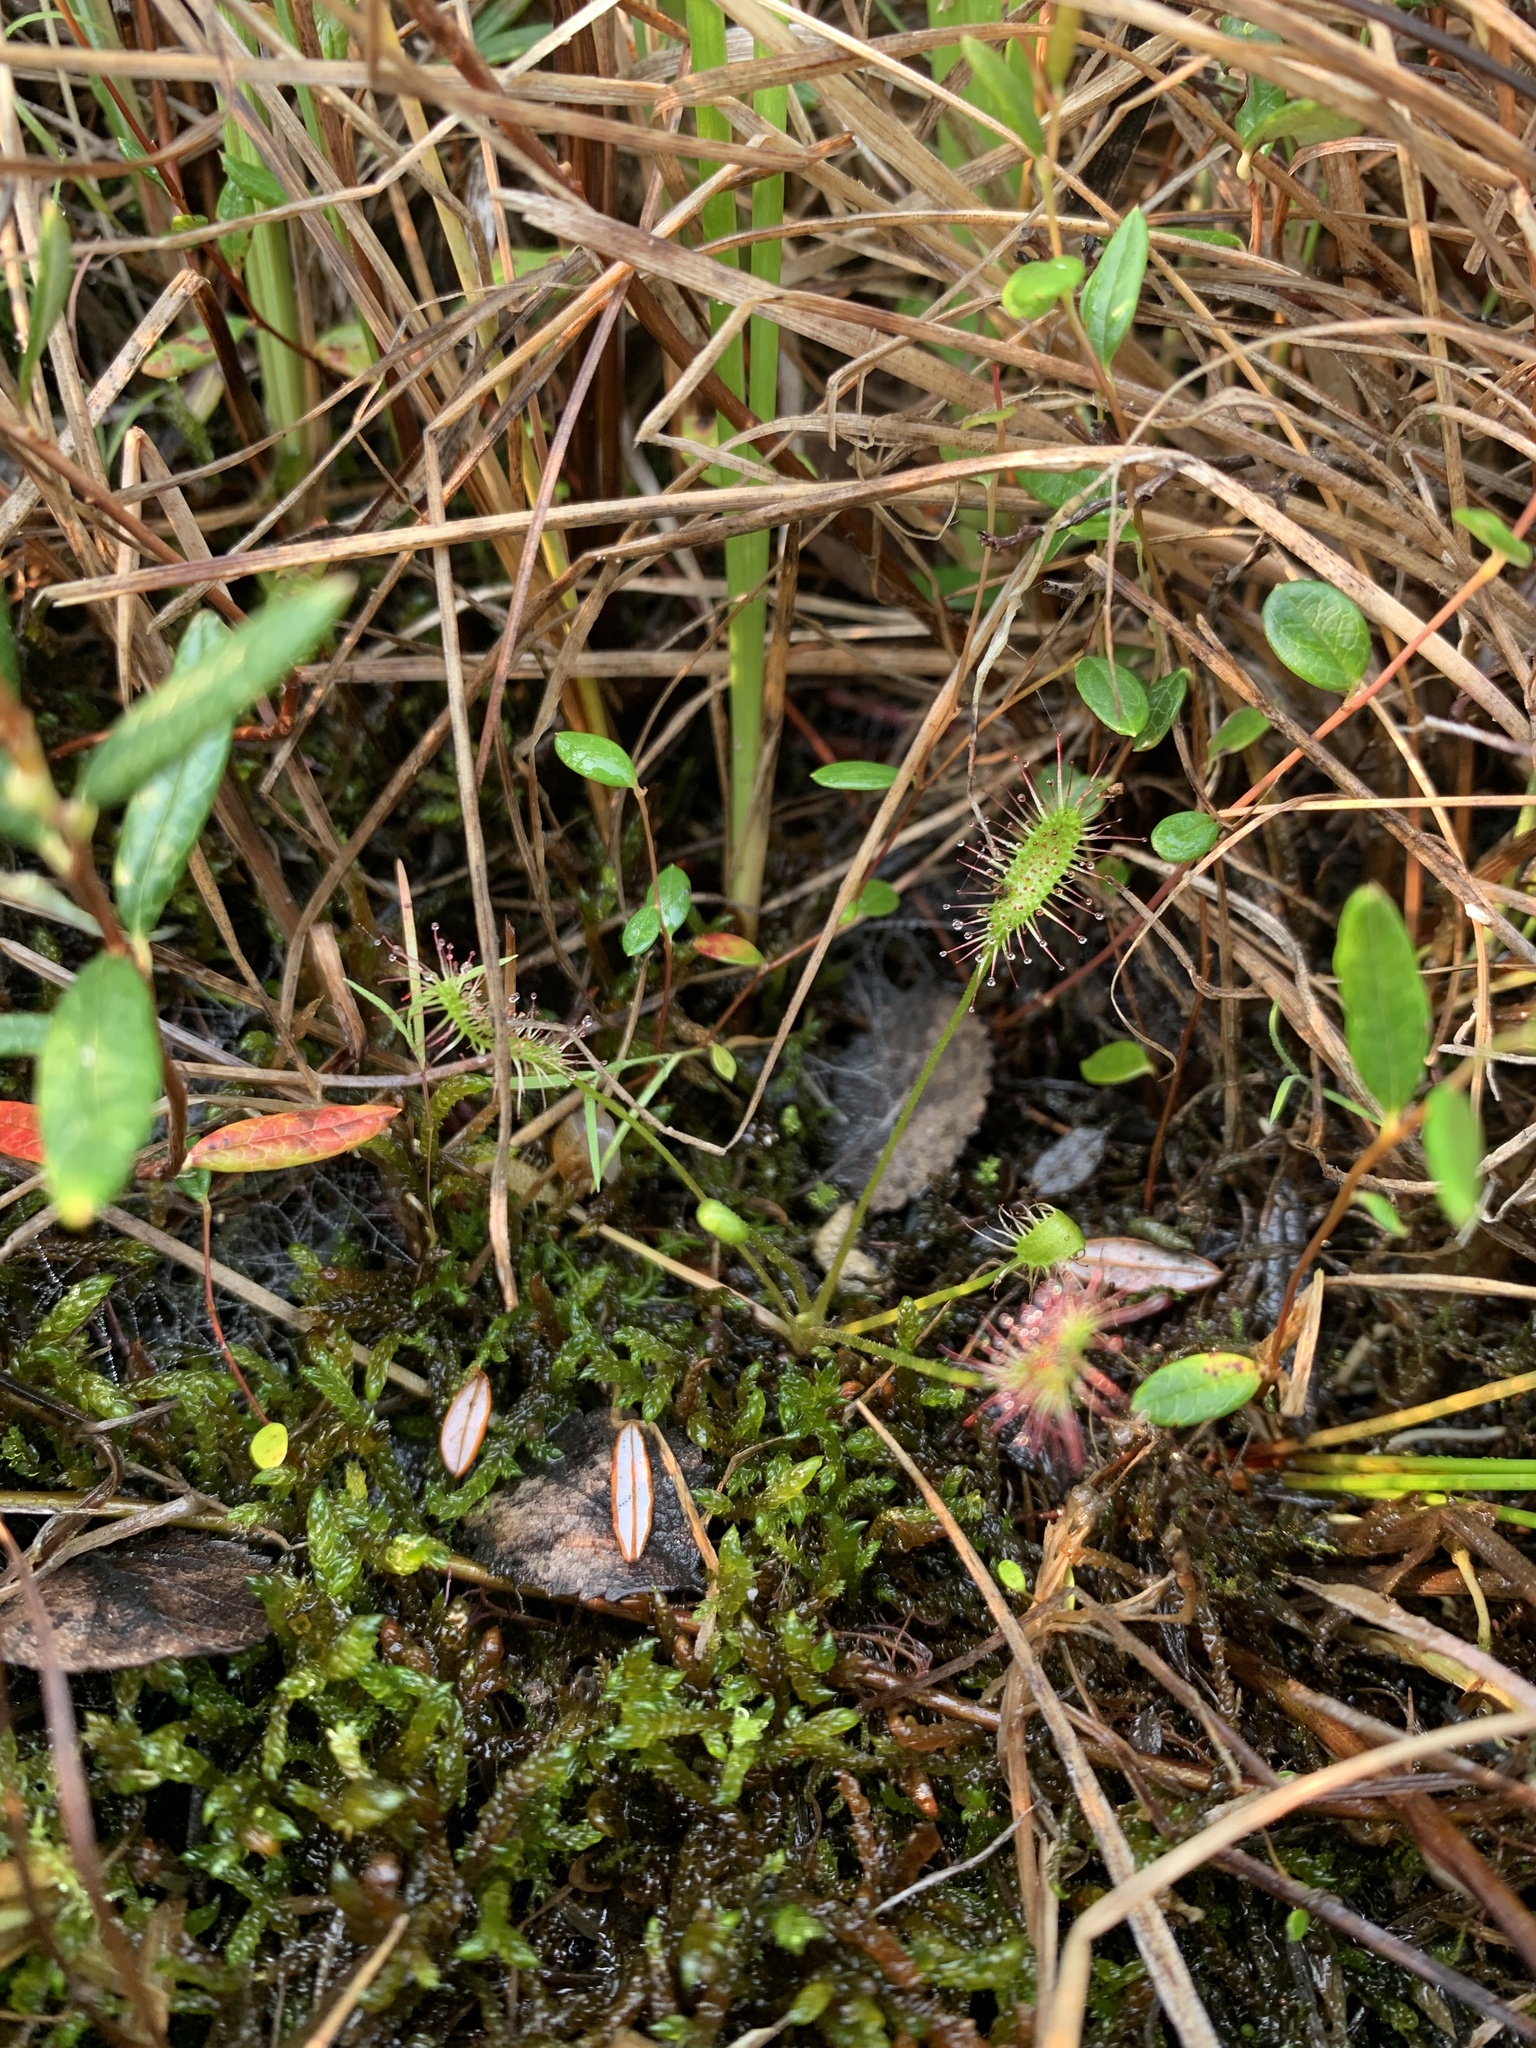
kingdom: Plantae
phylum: Tracheophyta
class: Magnoliopsida
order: Caryophyllales
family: Droseraceae
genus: Drosera
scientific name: Drosera anglica
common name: Great sundew
